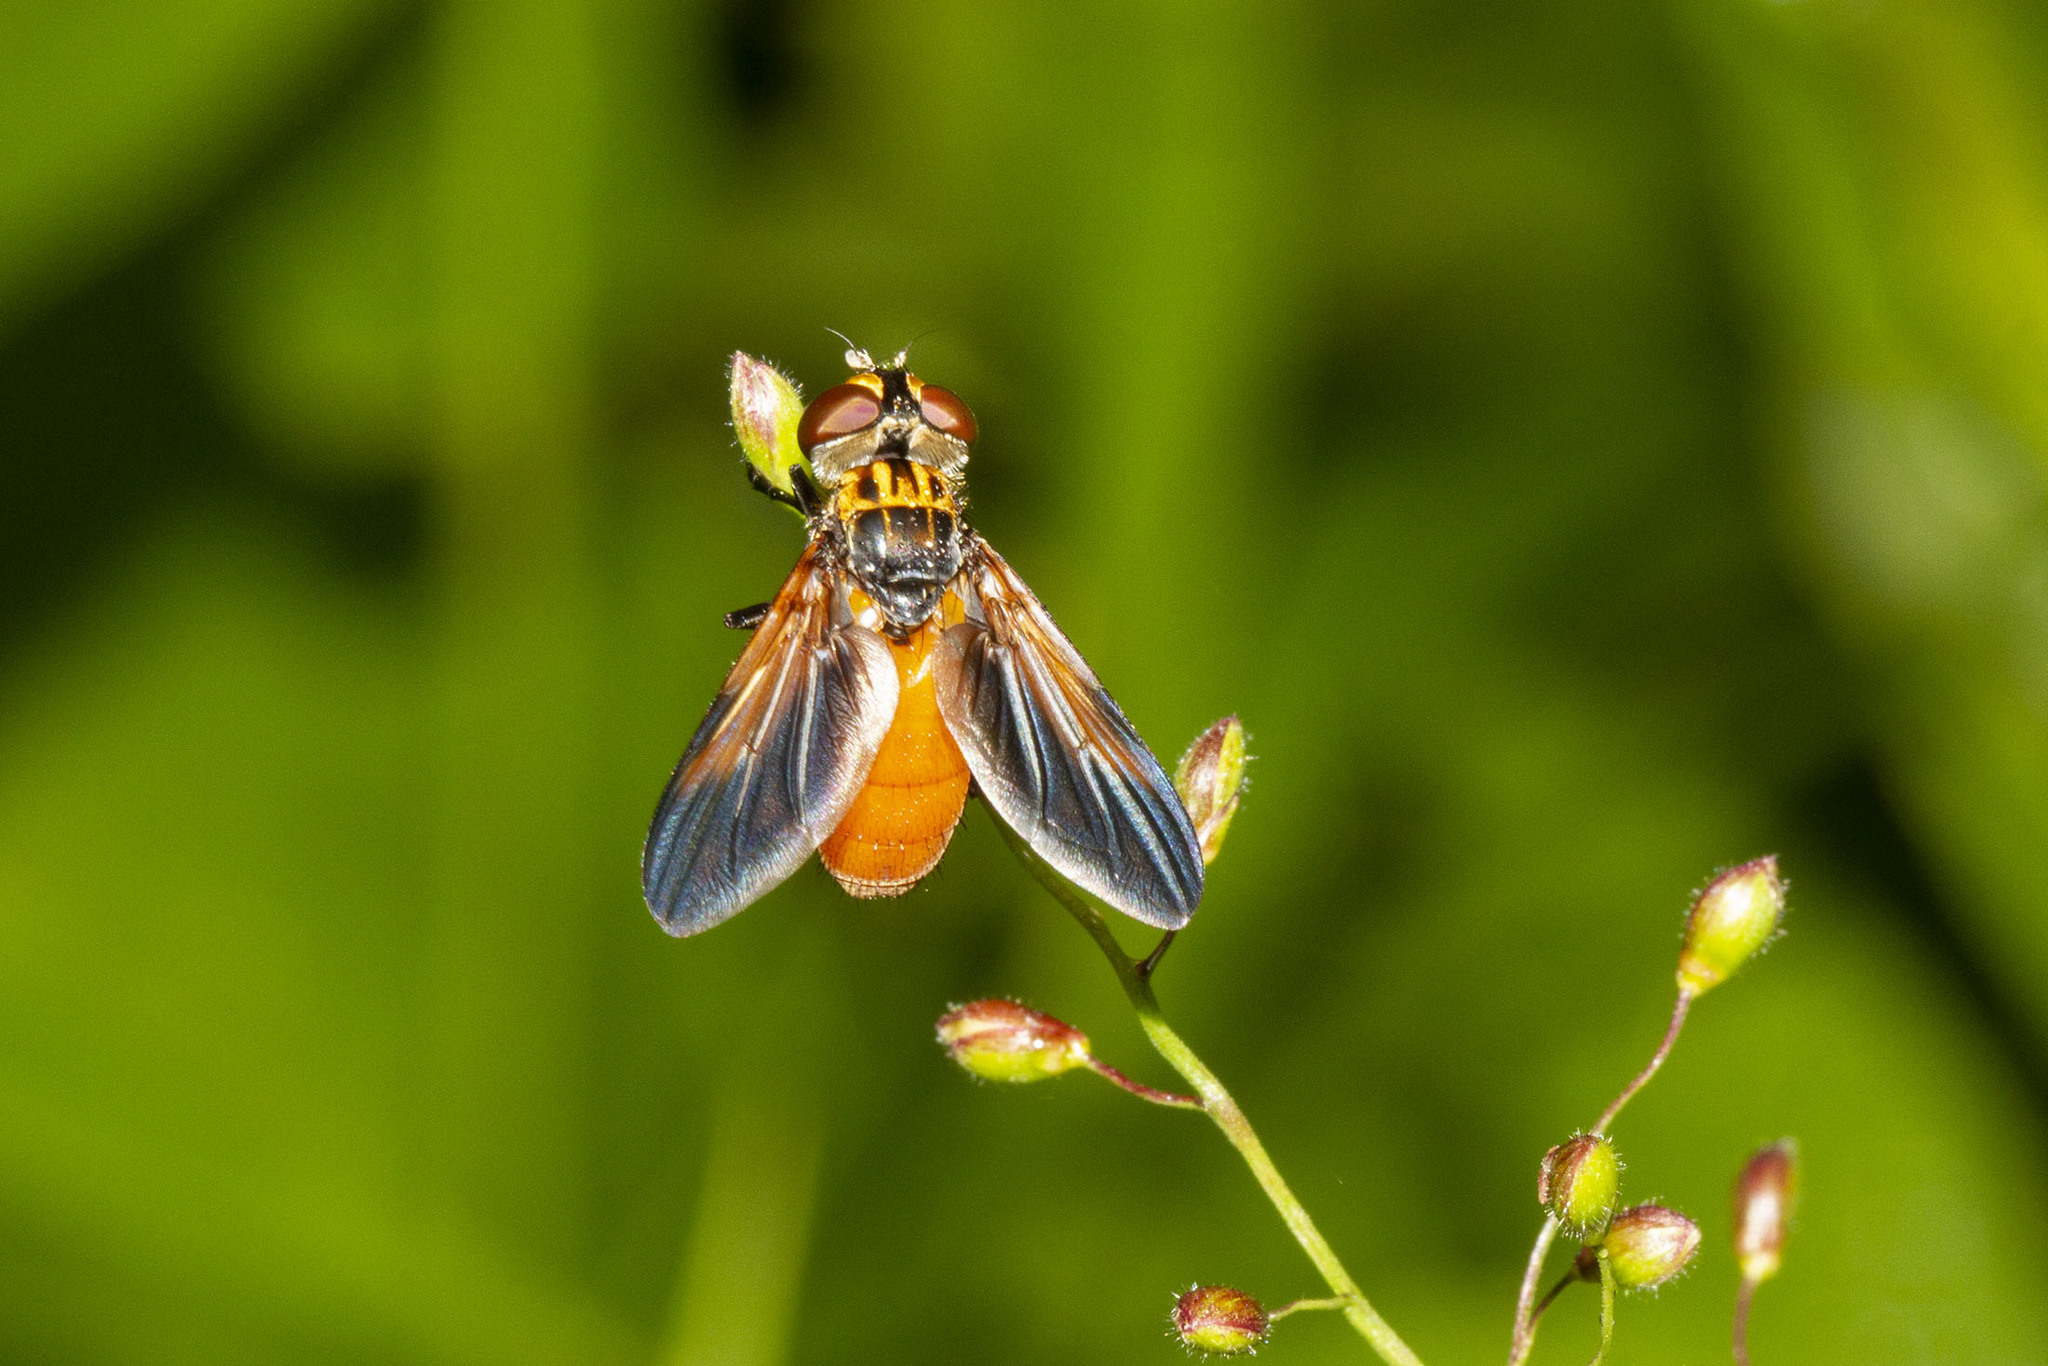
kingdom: Animalia
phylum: Arthropoda
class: Insecta
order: Diptera
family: Tachinidae
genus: Trichopoda
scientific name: Trichopoda pennipes
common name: Tachinid fly
